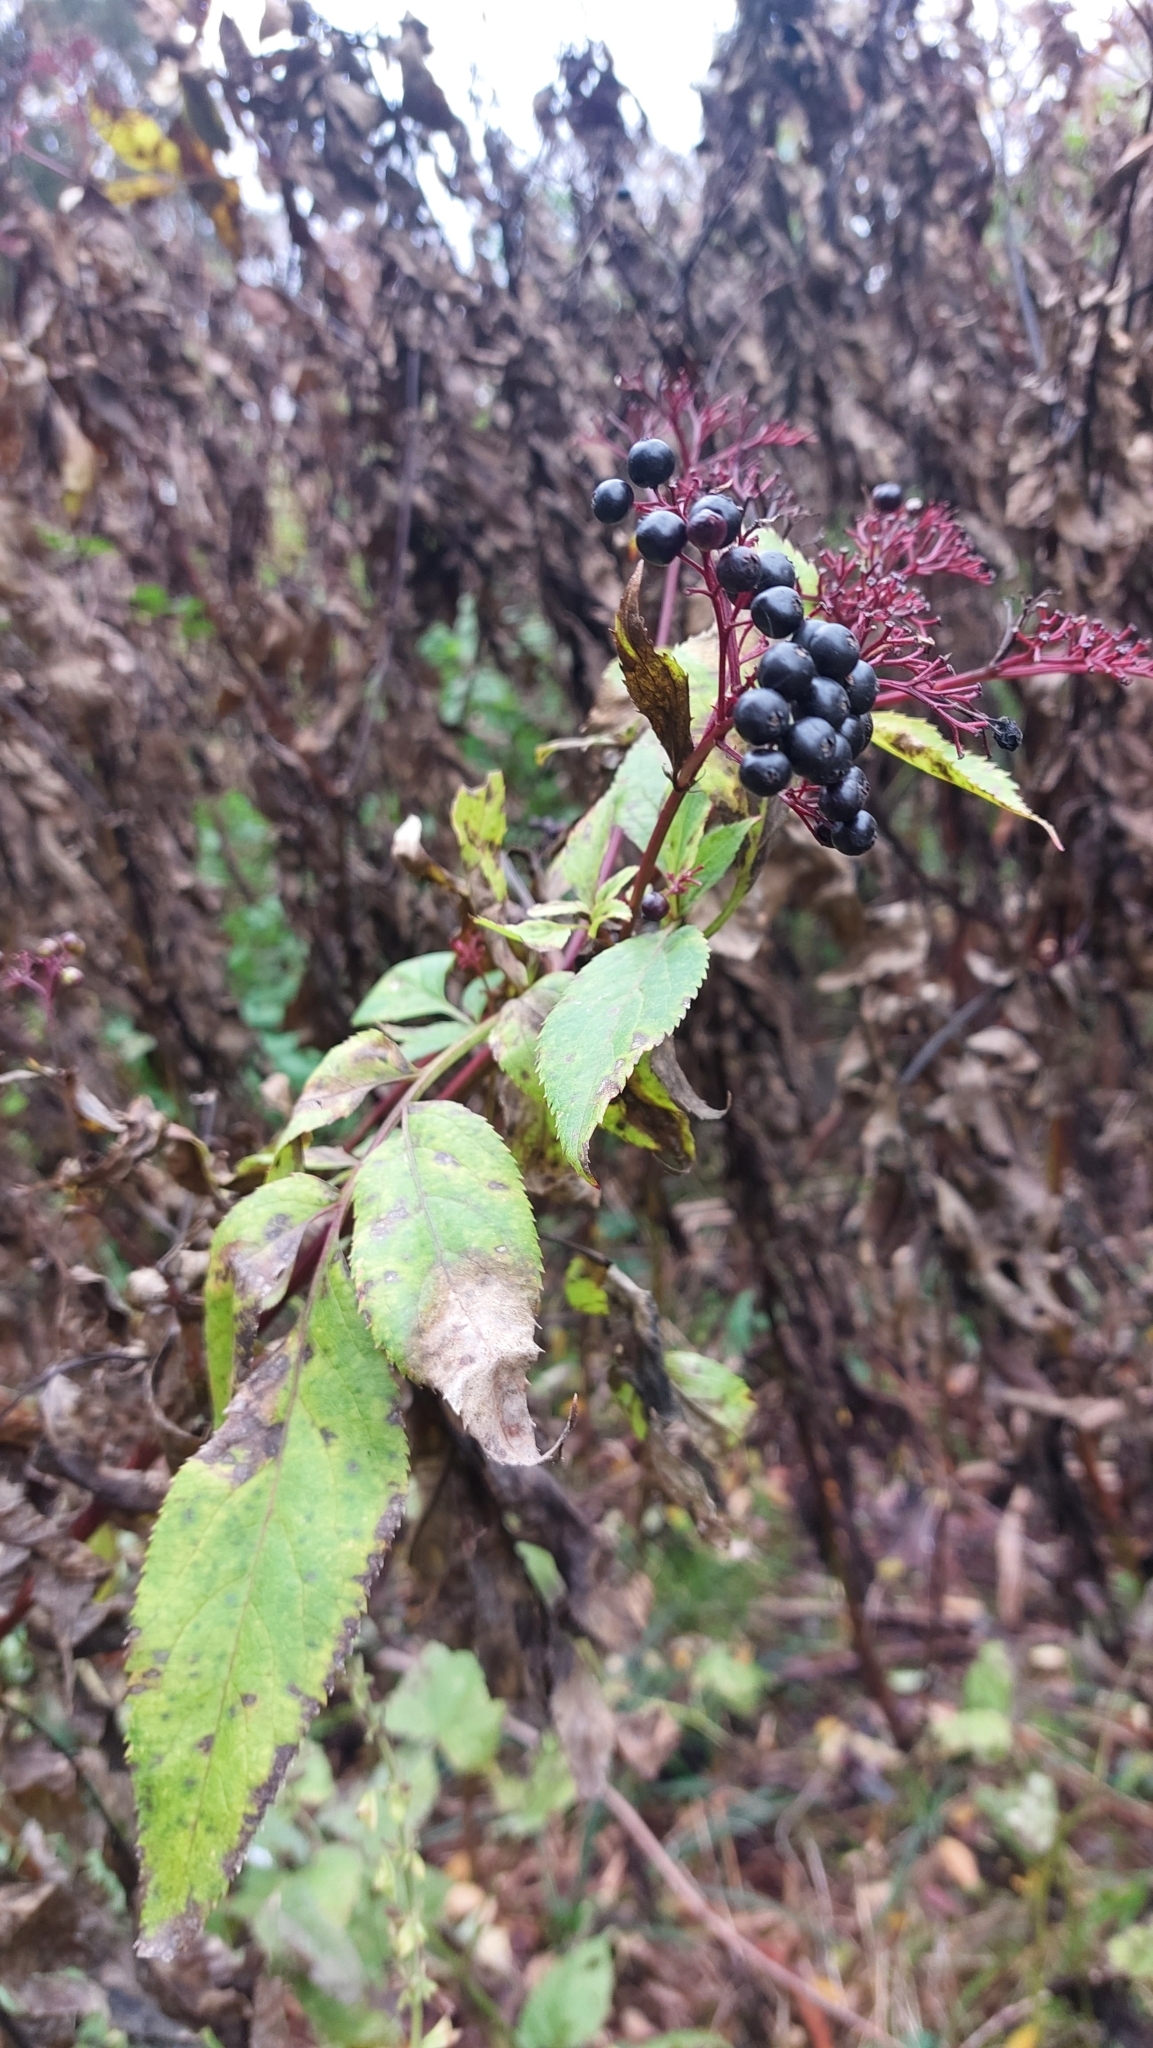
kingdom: Plantae
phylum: Tracheophyta
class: Magnoliopsida
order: Dipsacales
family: Viburnaceae
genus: Sambucus
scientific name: Sambucus ebulus
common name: Dwarf elder
